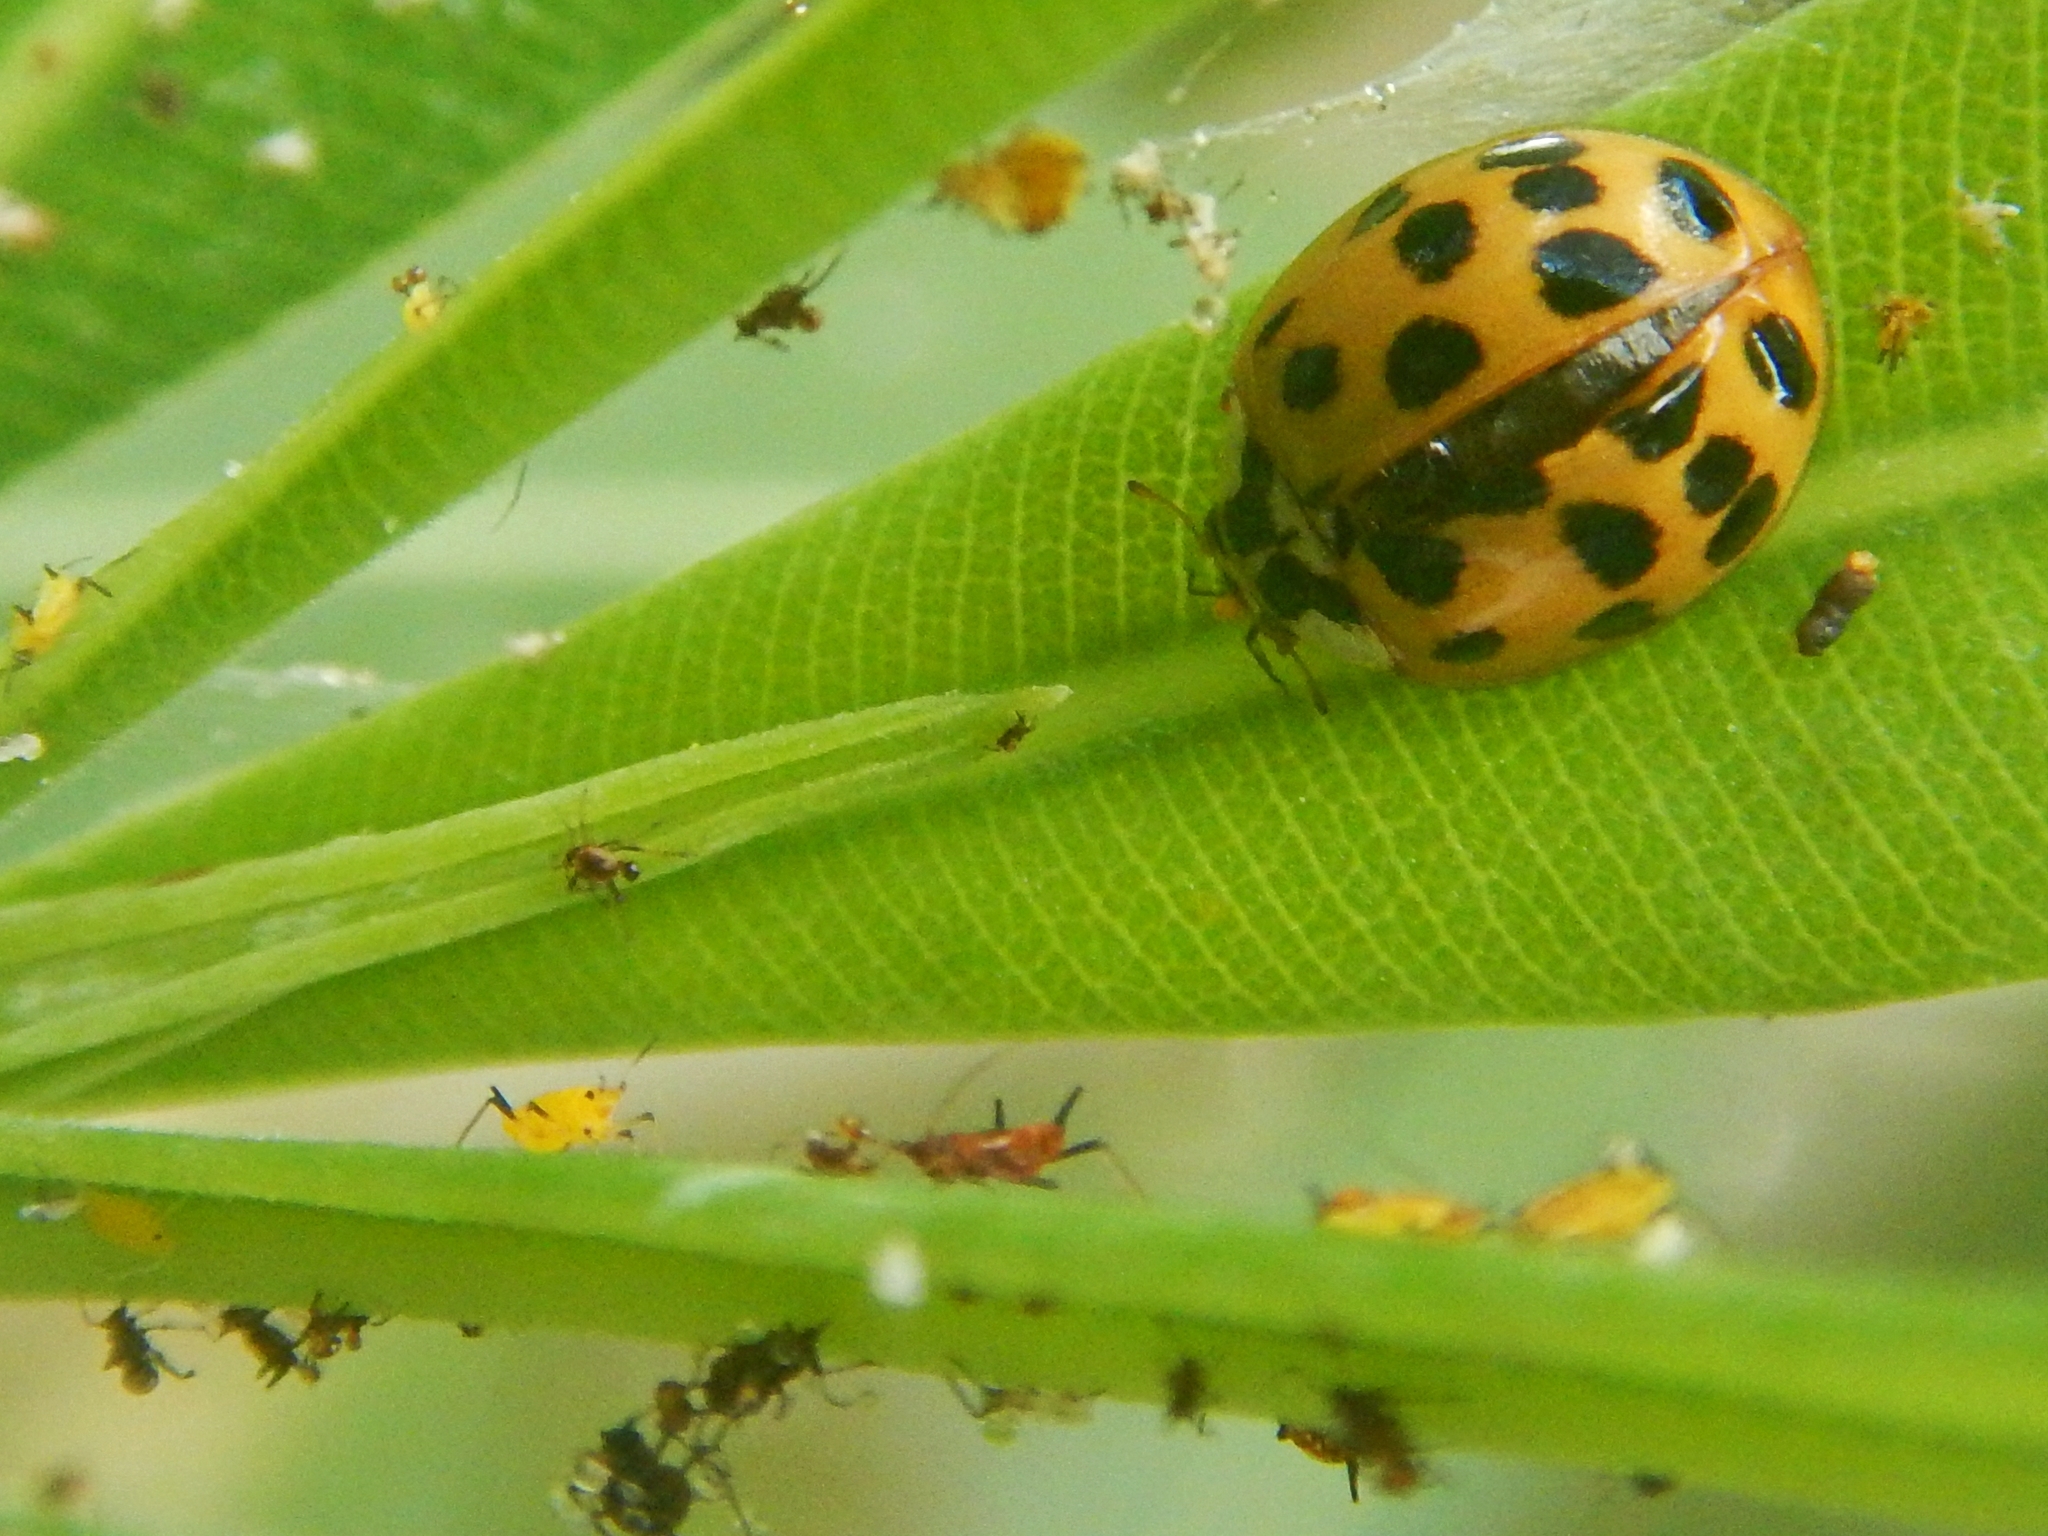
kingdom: Animalia
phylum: Arthropoda
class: Insecta
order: Coleoptera
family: Coccinellidae
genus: Harmonia
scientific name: Harmonia axyridis
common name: Harlequin ladybird
